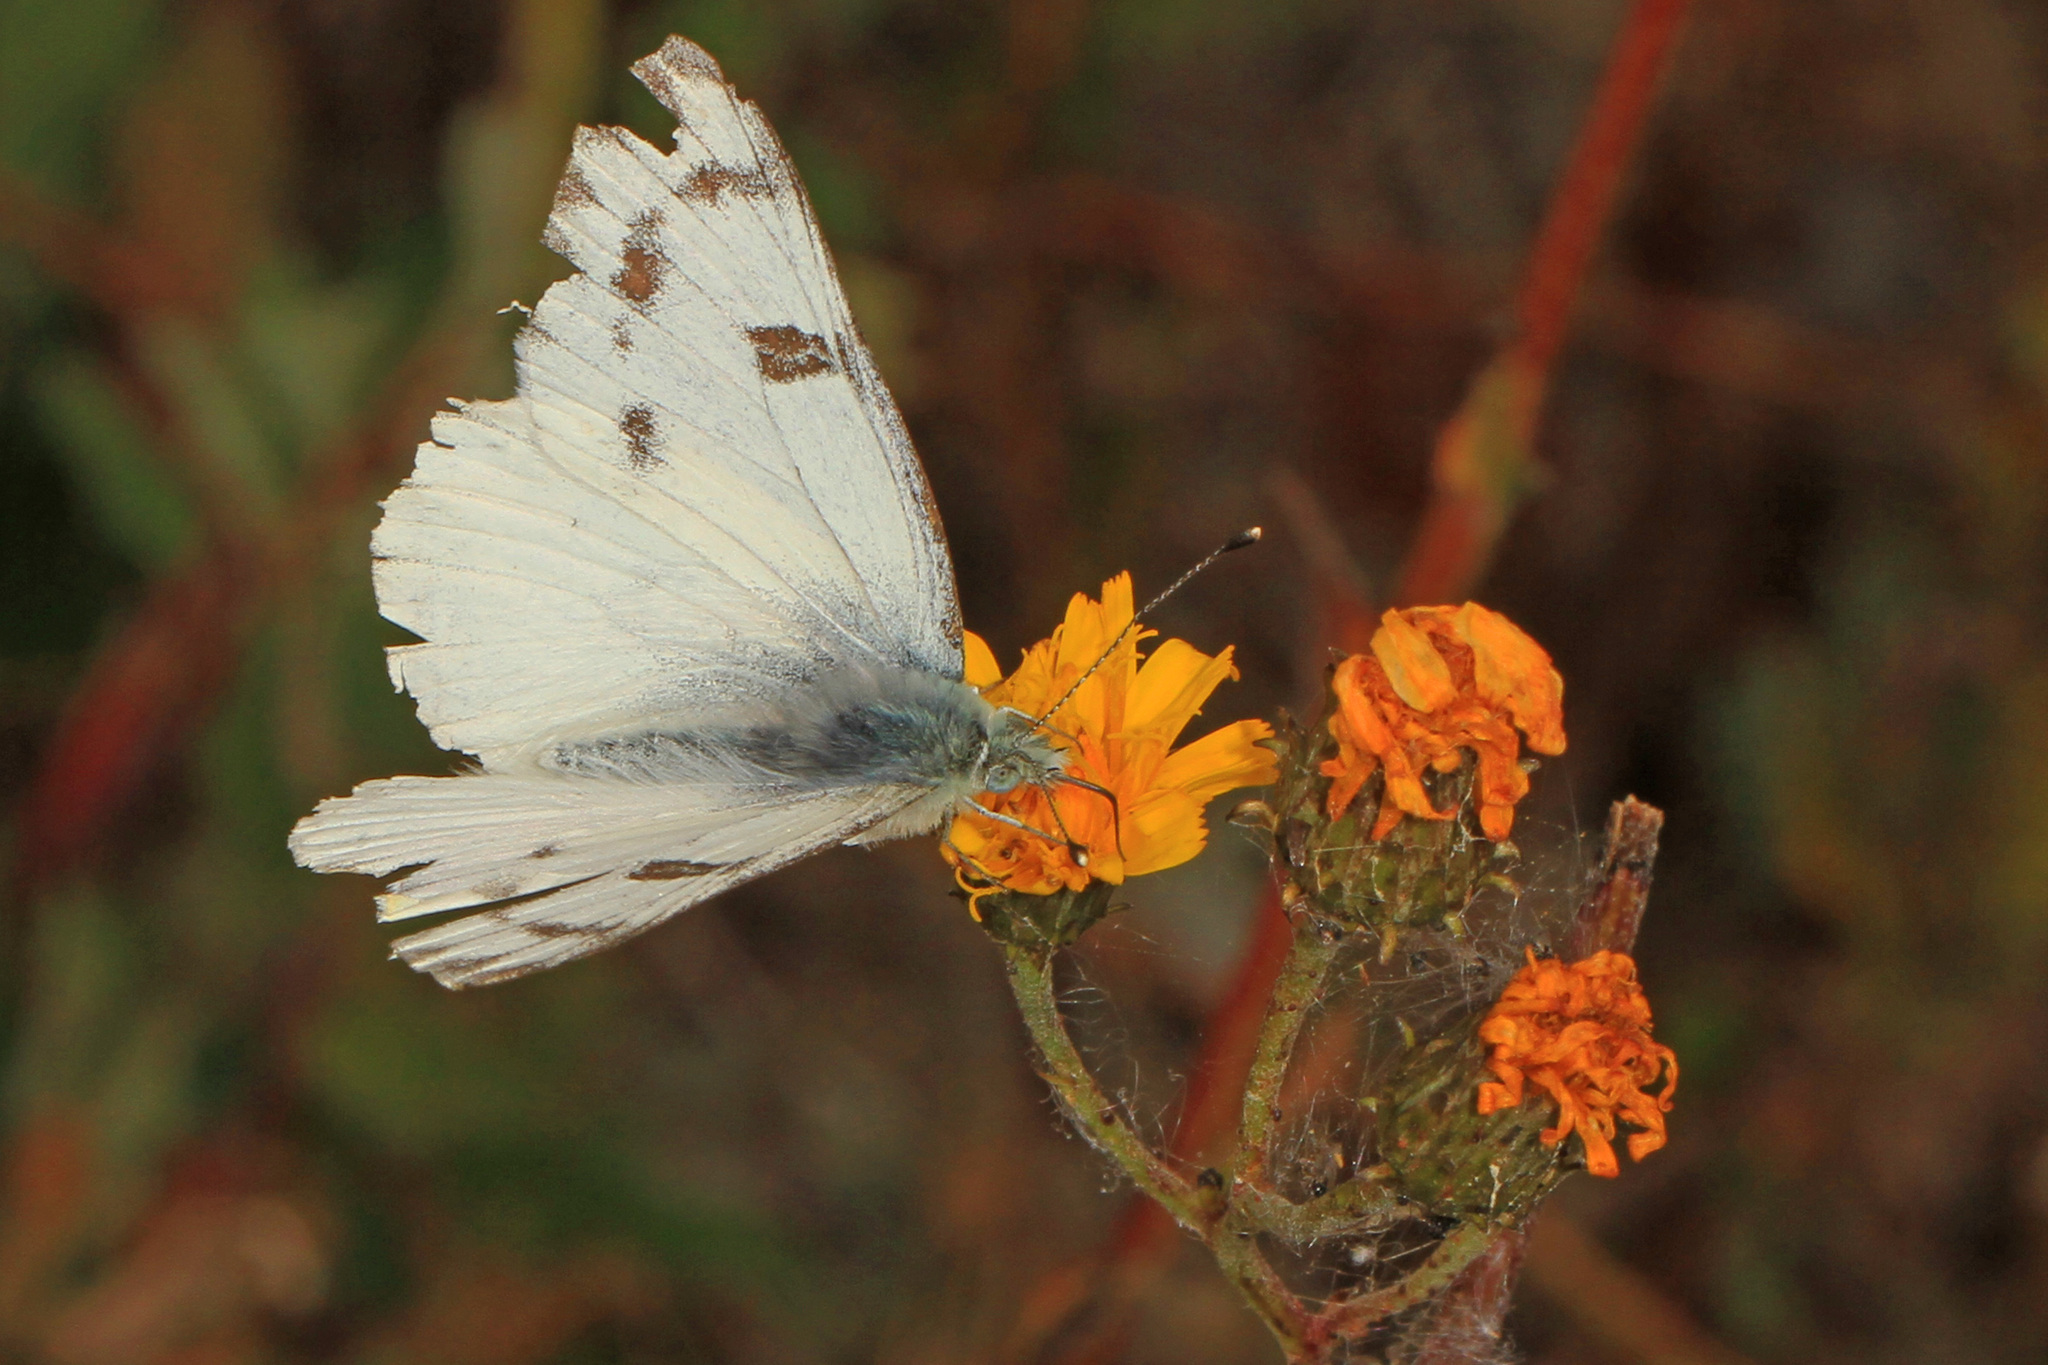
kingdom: Animalia
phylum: Arthropoda
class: Insecta
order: Lepidoptera
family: Pieridae
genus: Pontia
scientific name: Pontia occidentalis
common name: Western white
